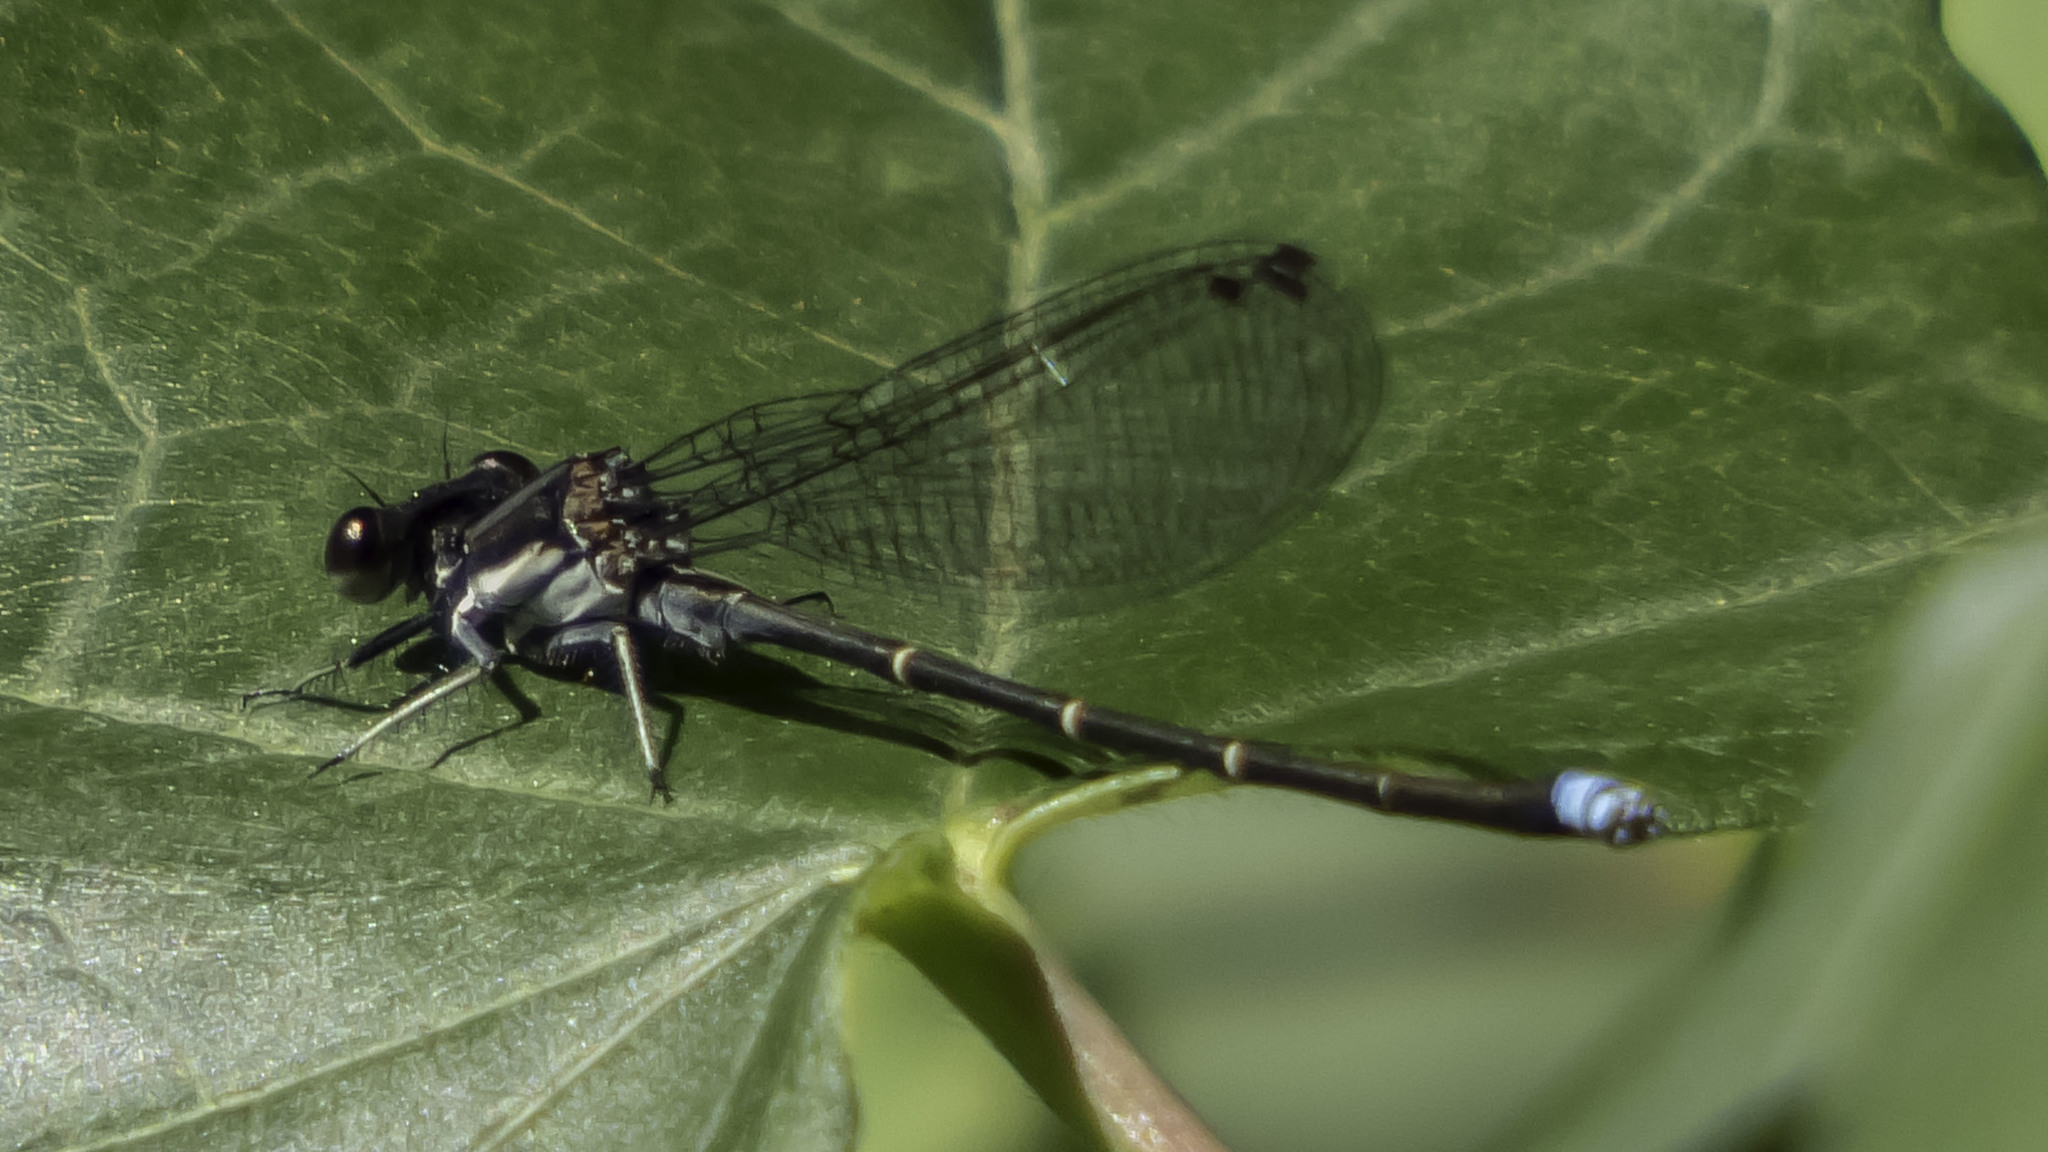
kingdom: Animalia
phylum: Arthropoda
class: Insecta
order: Odonata
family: Coenagrionidae
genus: Argia
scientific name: Argia tibialis
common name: Blue-tipped dancer
